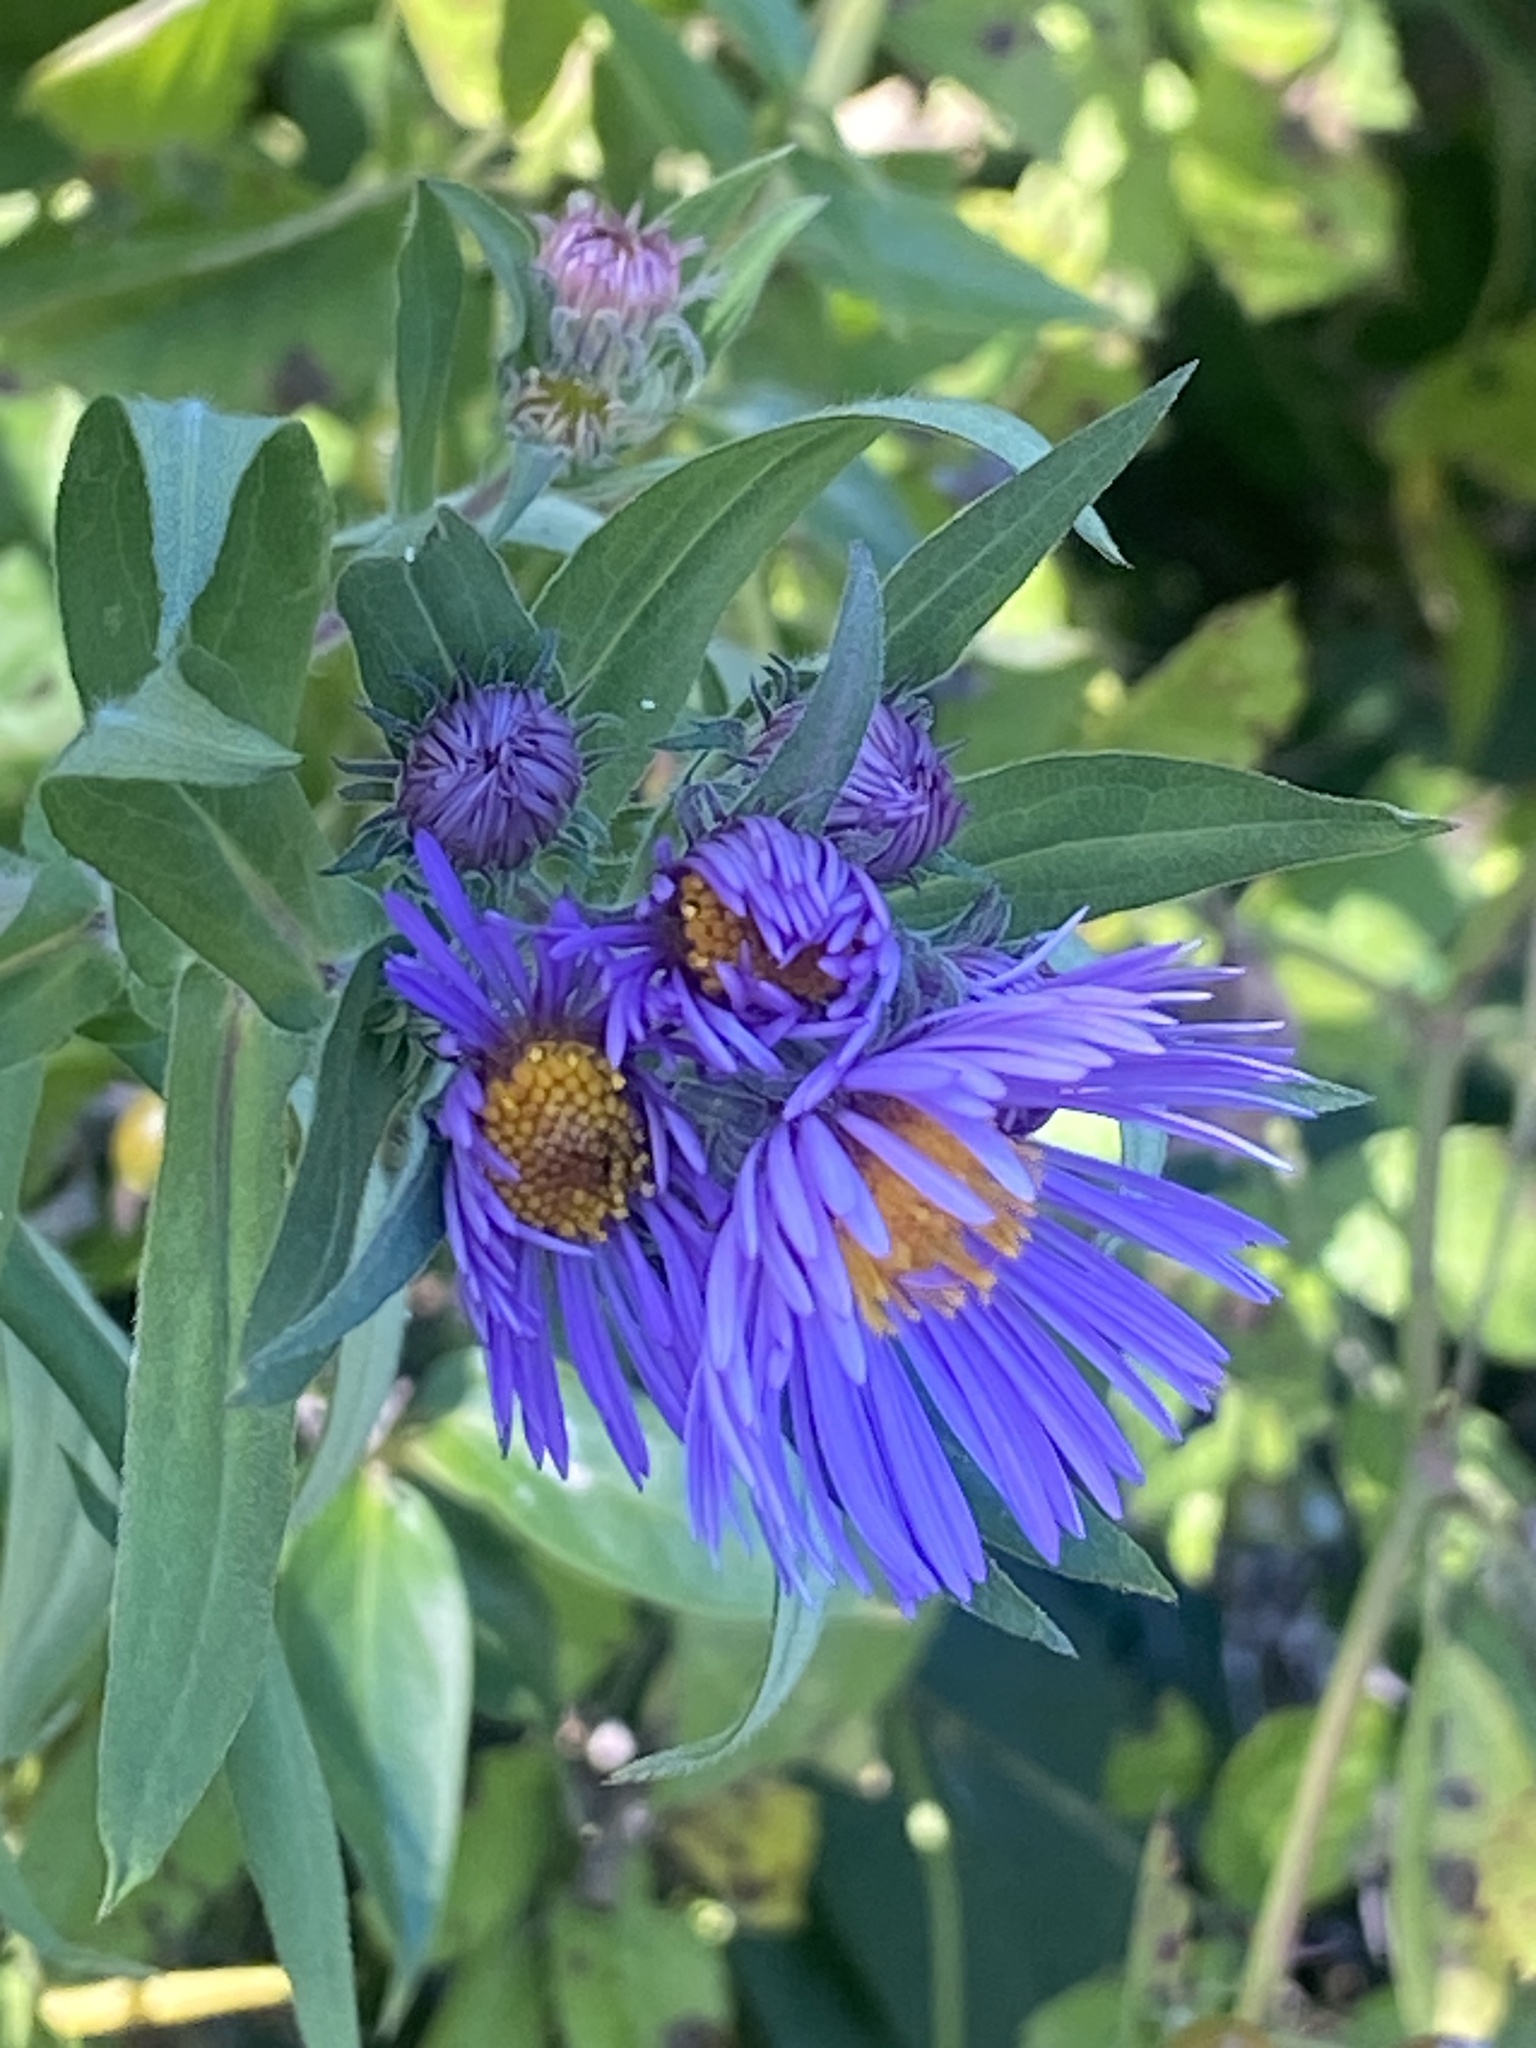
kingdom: Plantae
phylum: Tracheophyta
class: Magnoliopsida
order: Asterales
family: Asteraceae
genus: Symphyotrichum
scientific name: Symphyotrichum novae-angliae
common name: Michaelmas daisy
